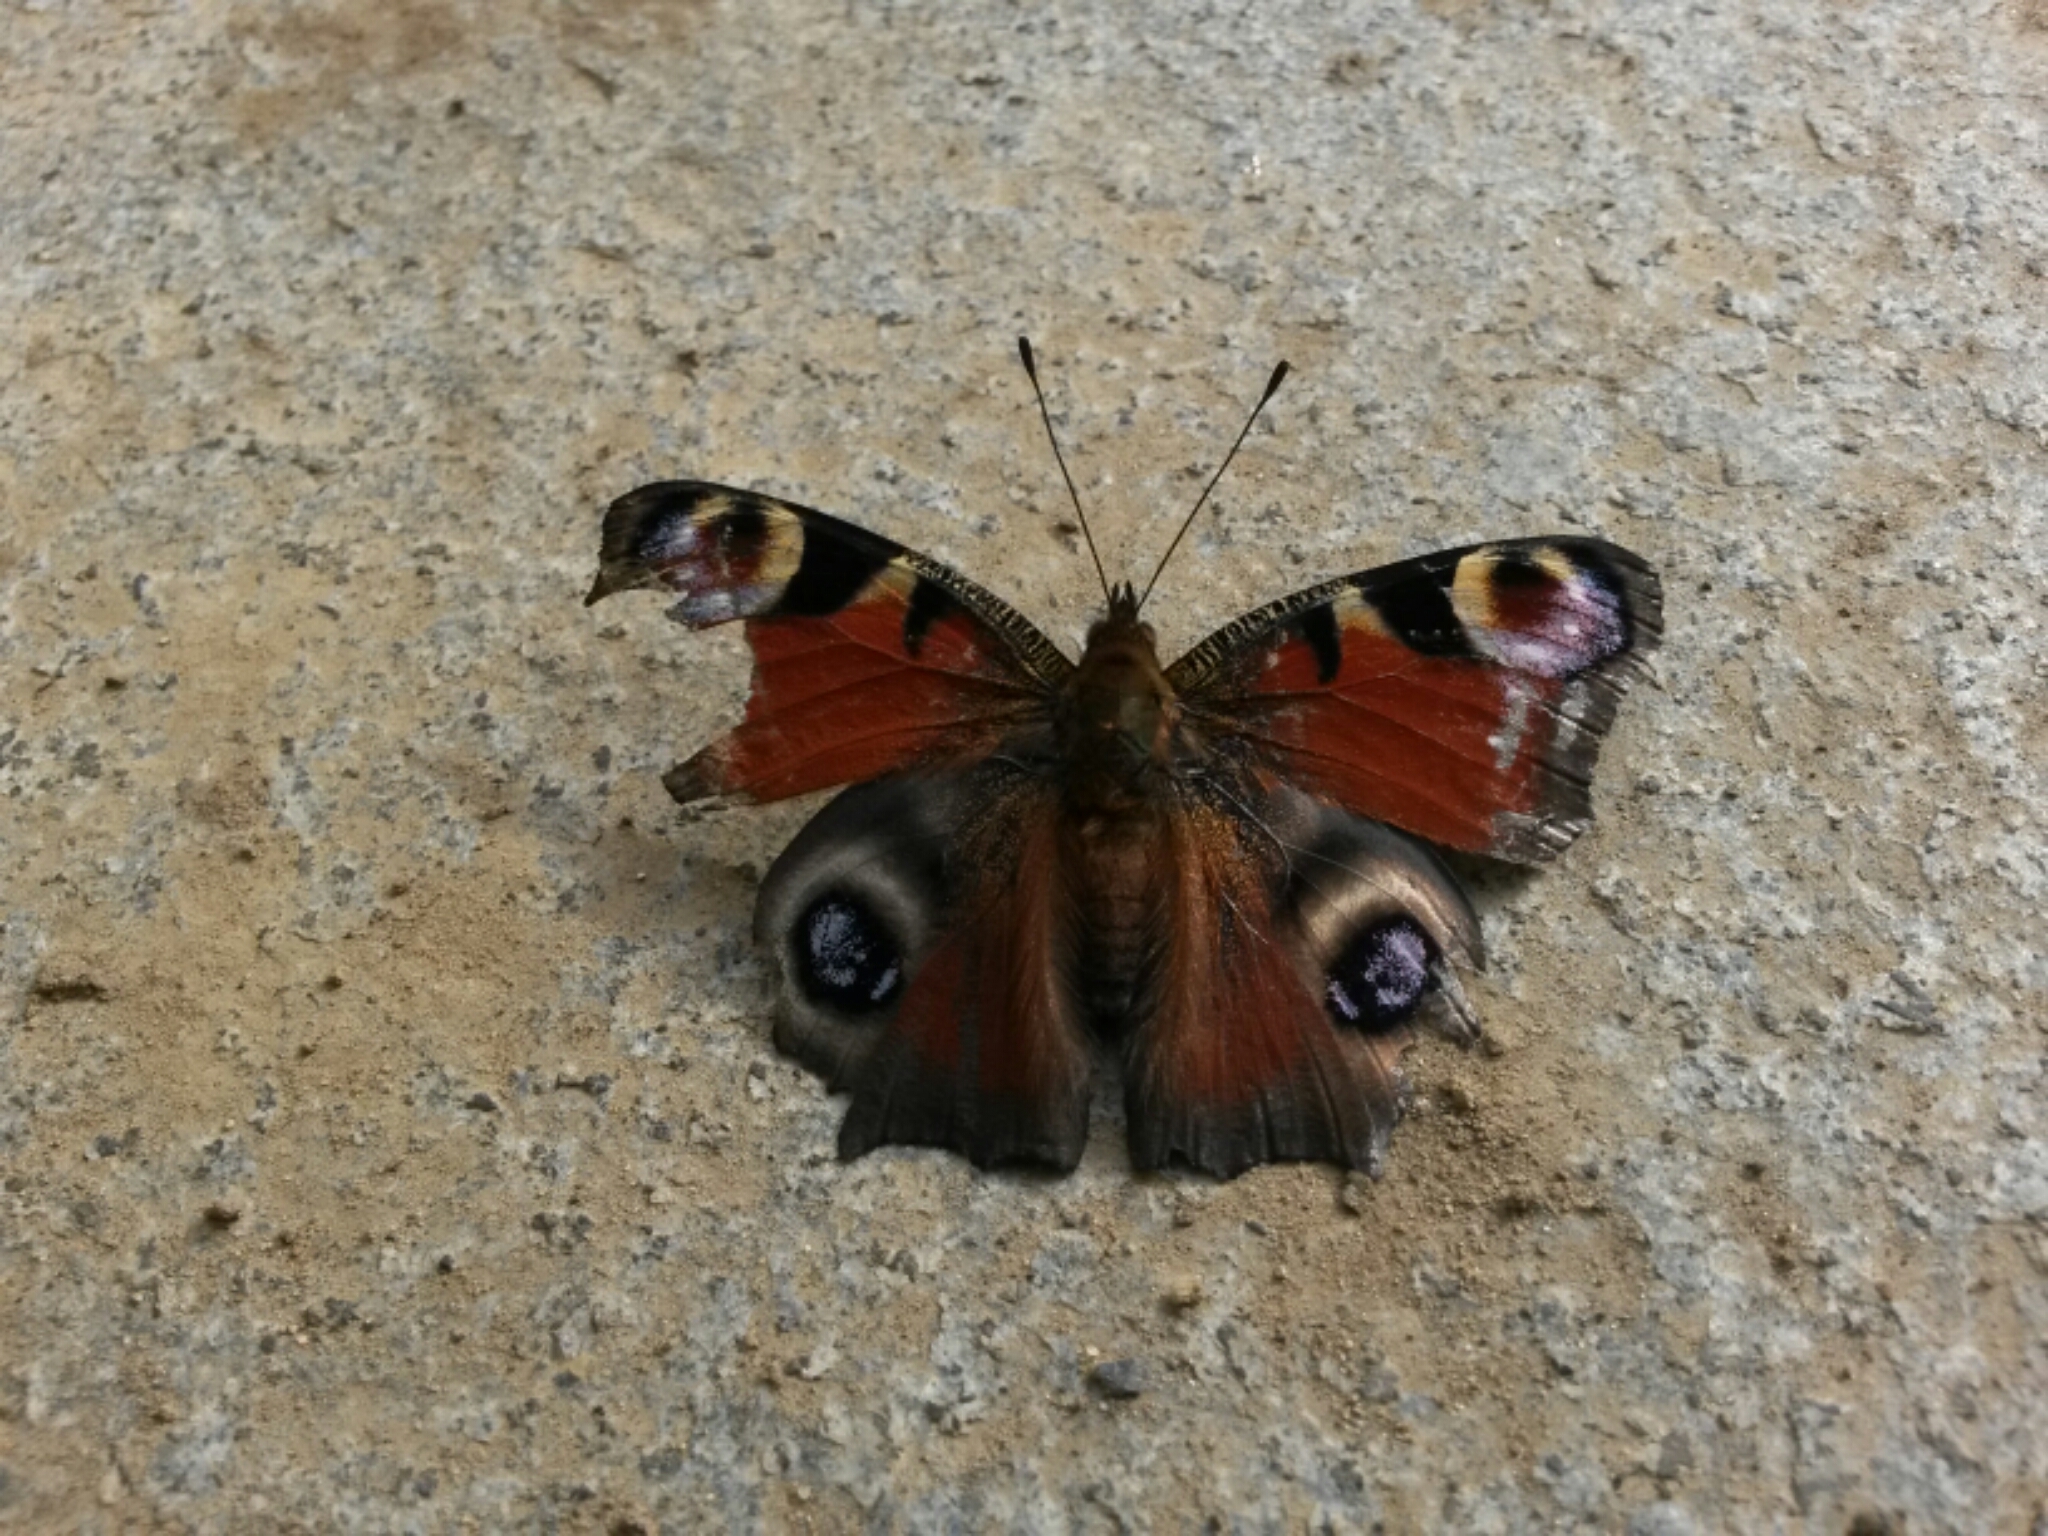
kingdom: Animalia
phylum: Arthropoda
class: Insecta
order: Lepidoptera
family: Nymphalidae
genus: Aglais
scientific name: Aglais io
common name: Peacock
